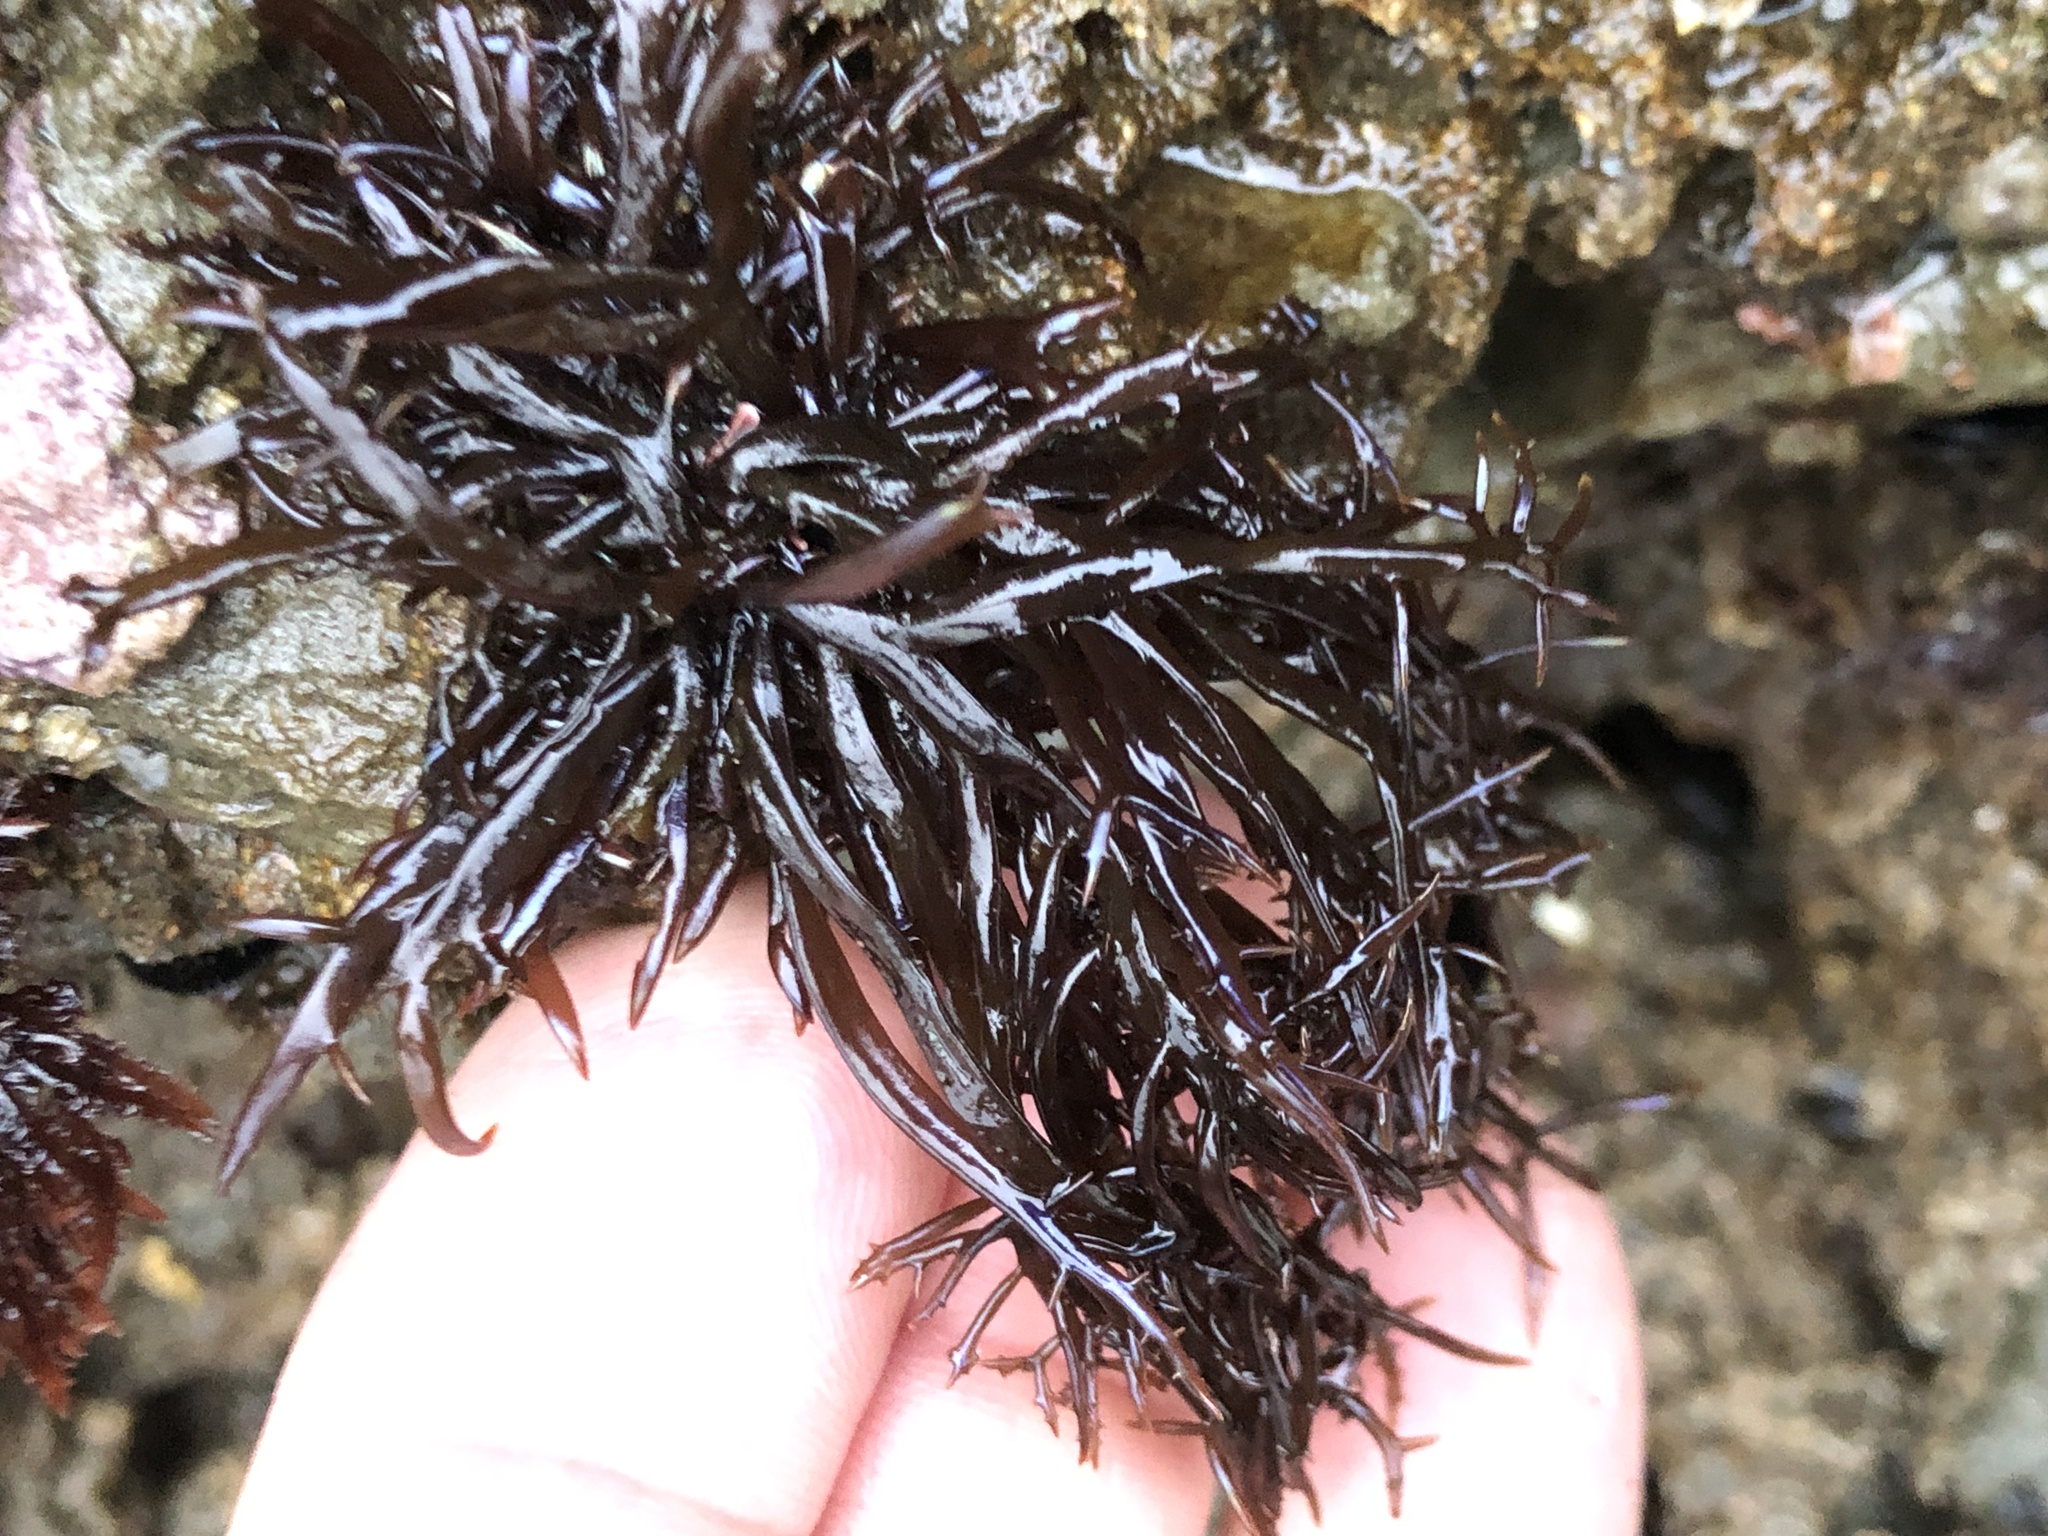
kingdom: Plantae
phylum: Rhodophyta
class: Florideophyceae
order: Gigartinales
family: Gigartinaceae
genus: Chondracanthus
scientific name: Chondracanthus canaliculatus
